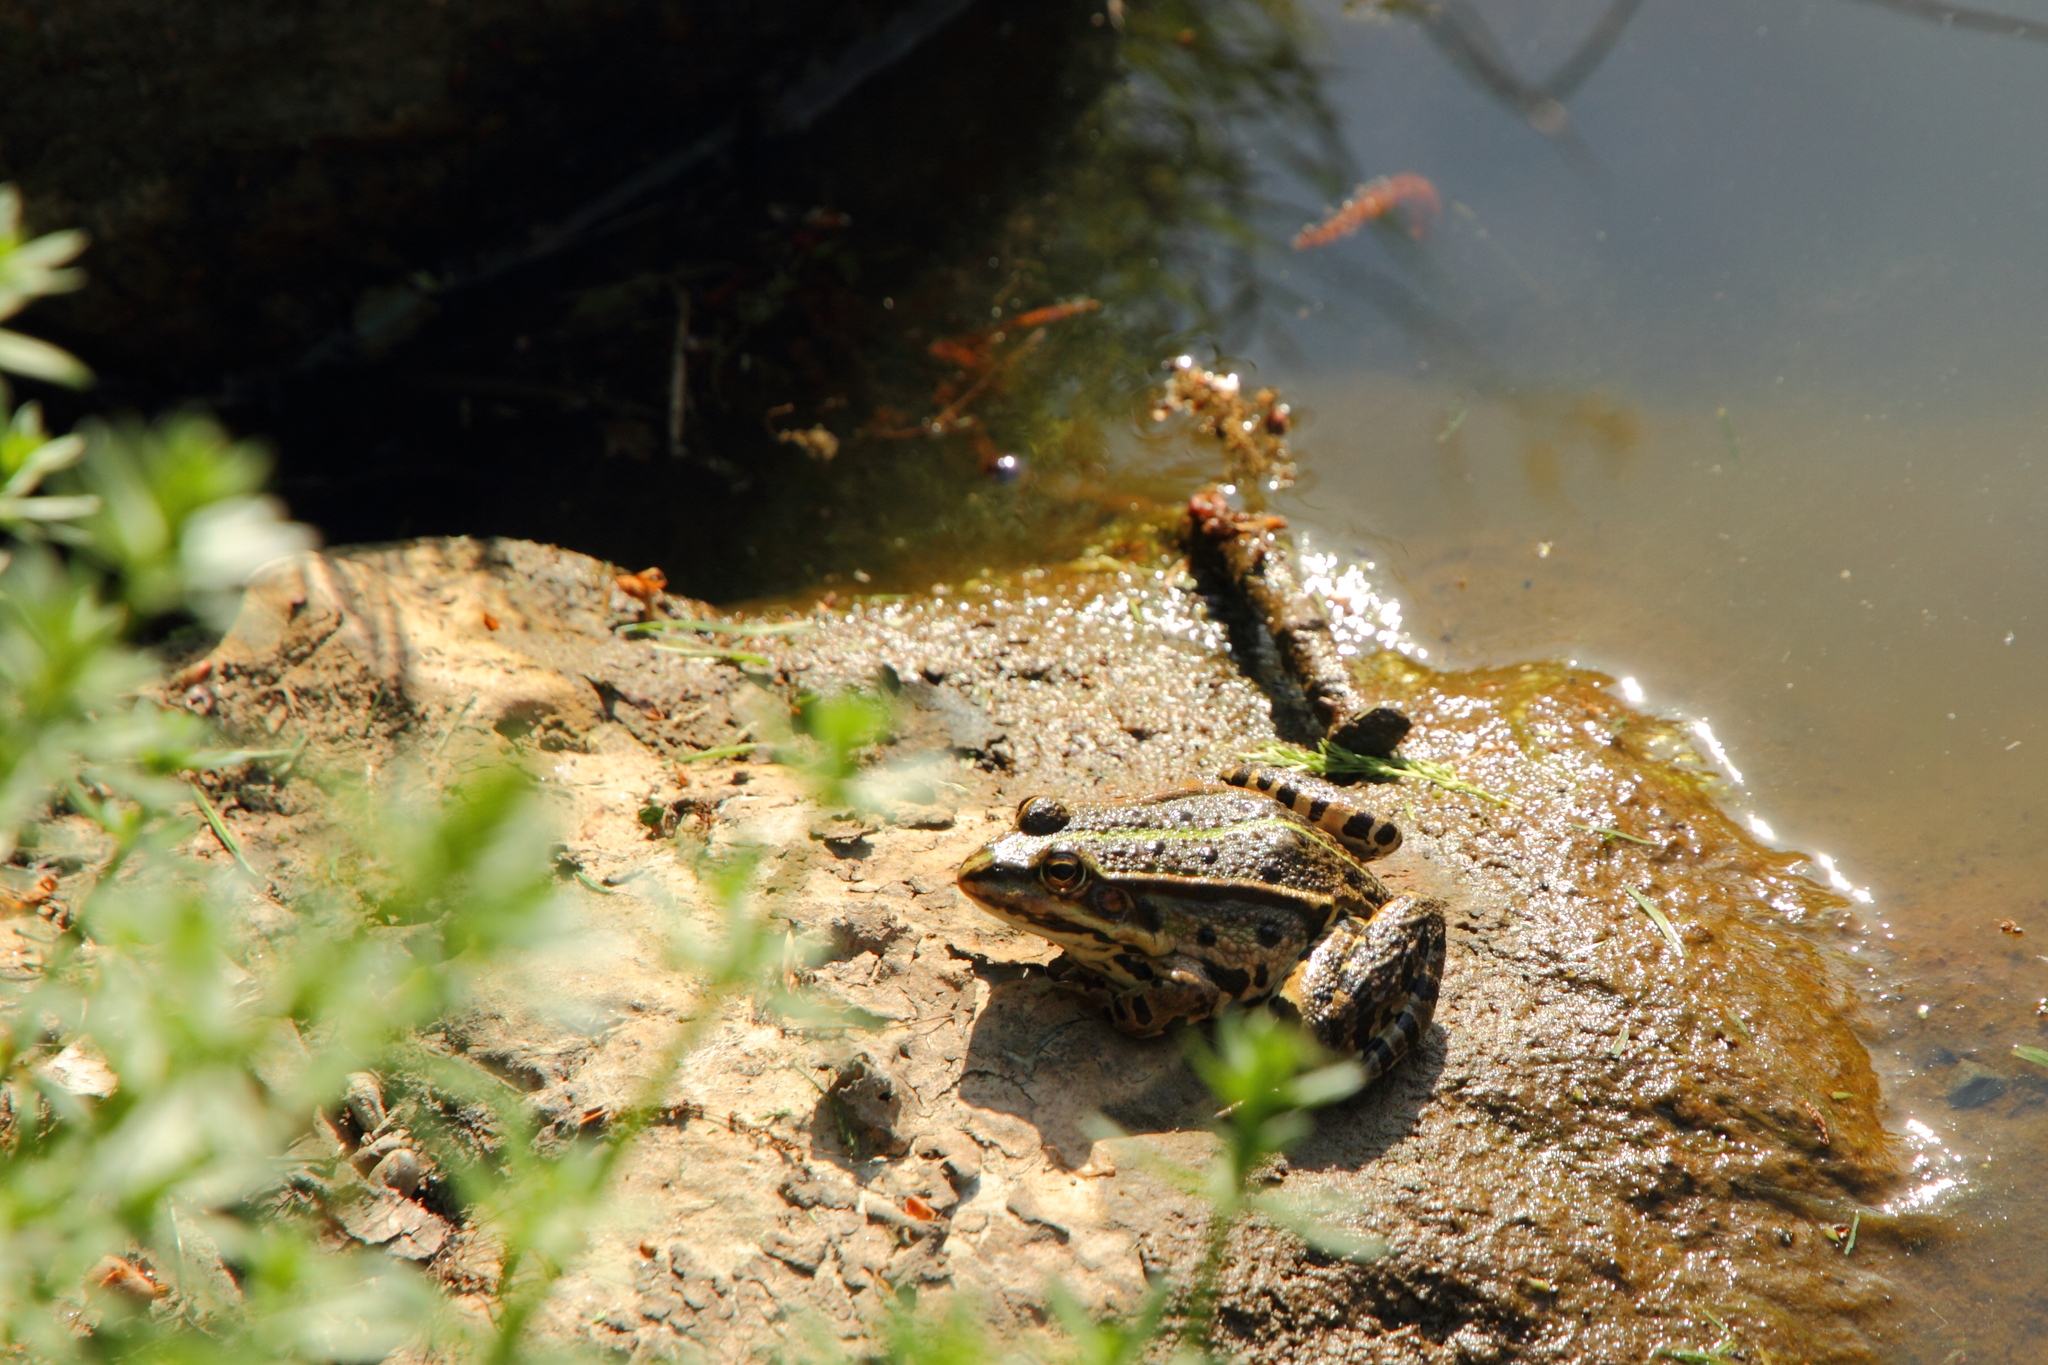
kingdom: Animalia
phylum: Chordata
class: Amphibia
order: Anura
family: Ranidae
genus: Pelophylax
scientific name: Pelophylax
